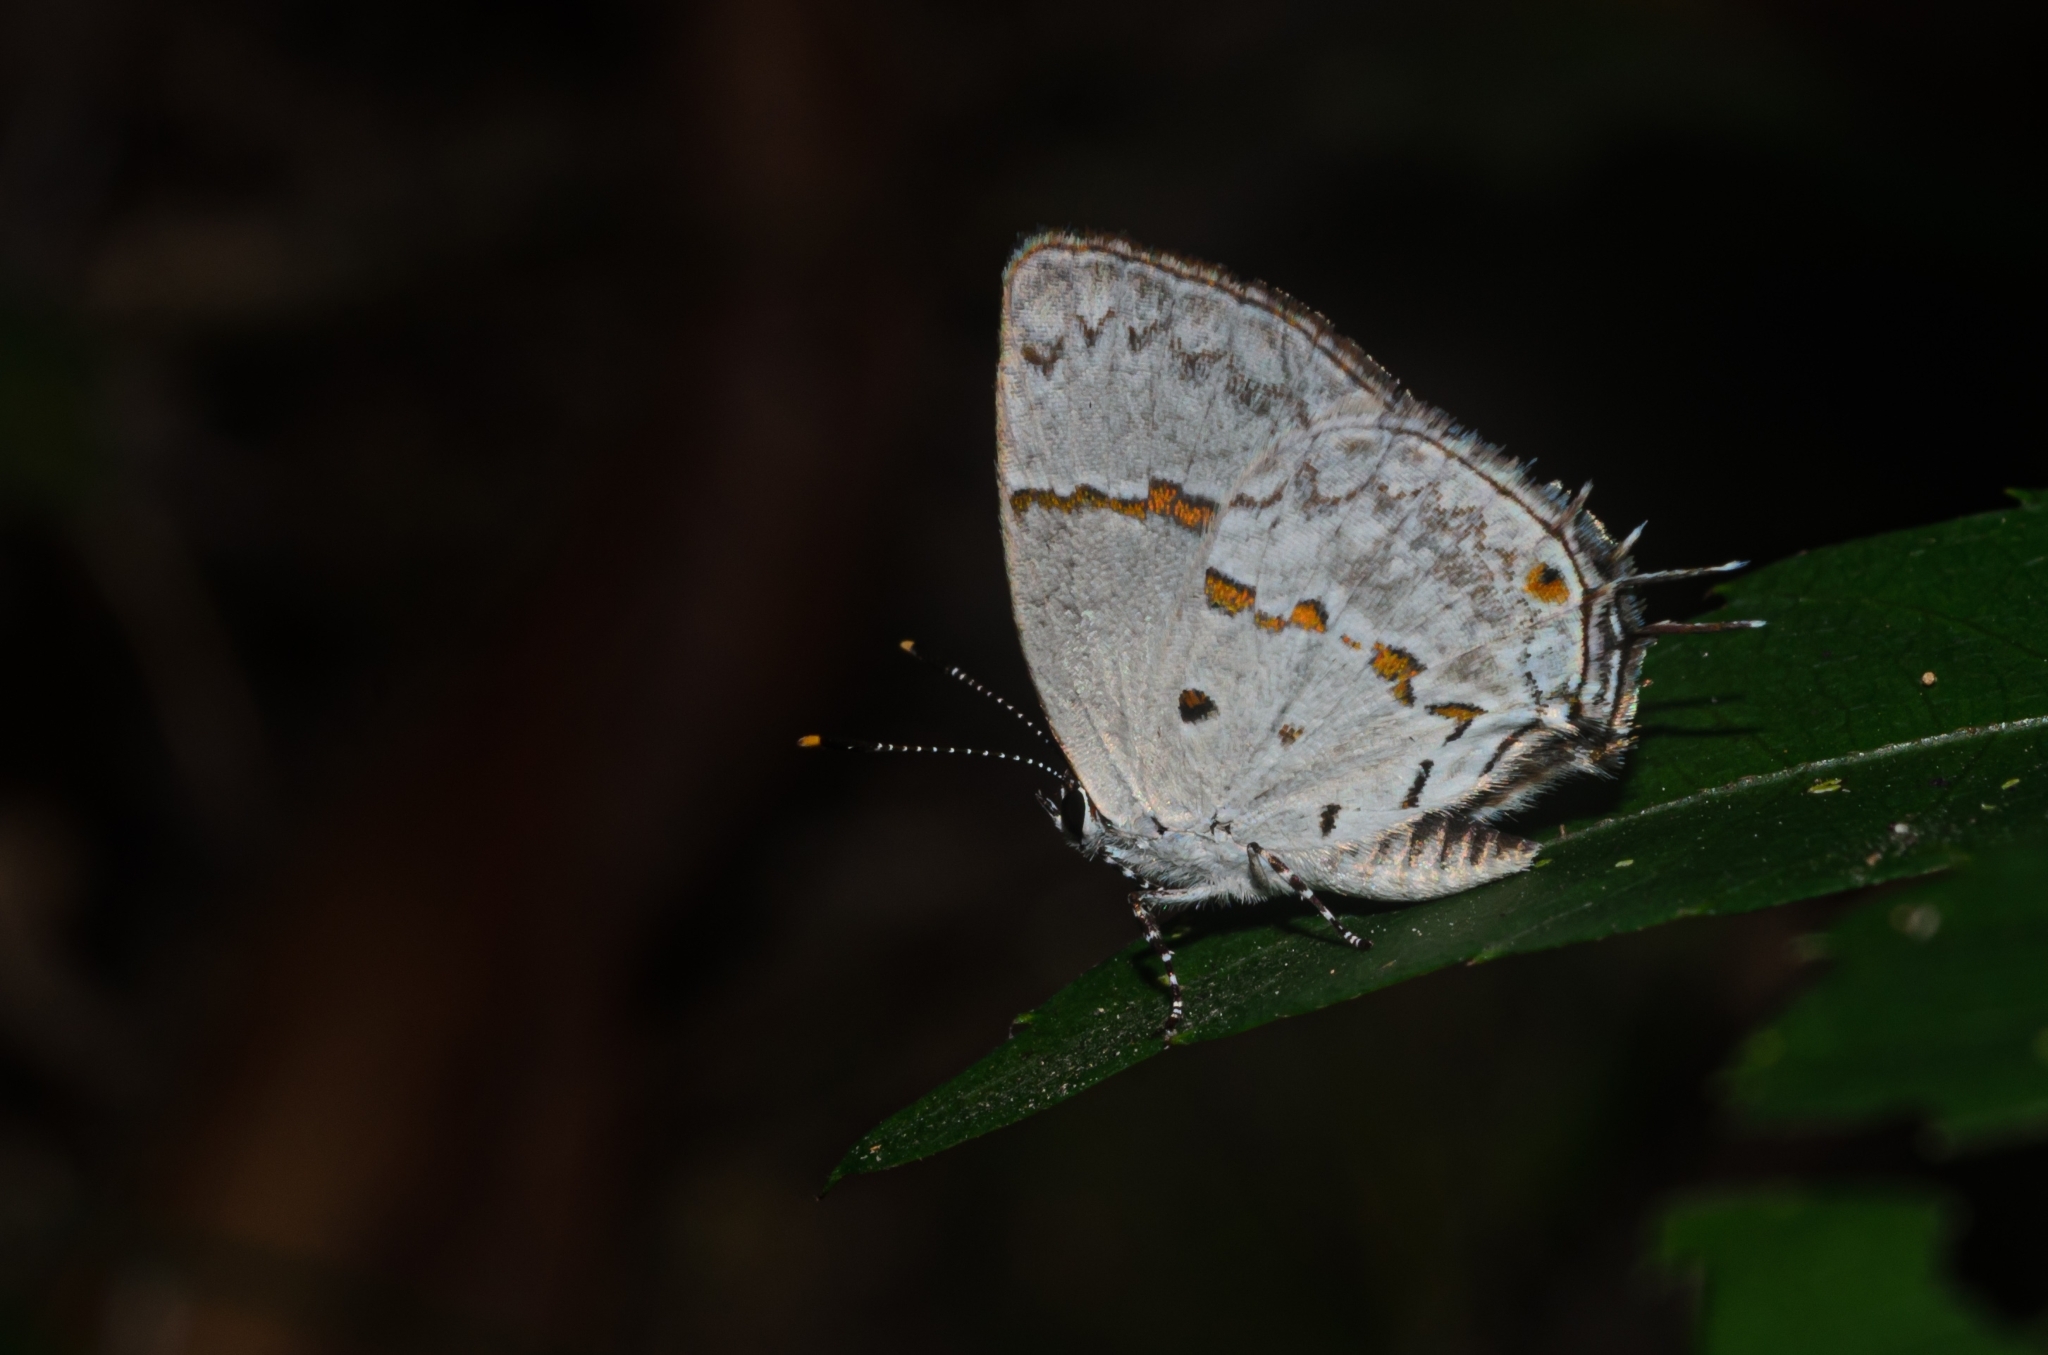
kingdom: Animalia
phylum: Arthropoda
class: Insecta
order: Lepidoptera
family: Lycaenidae
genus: Thecla
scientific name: Thecla celmus
